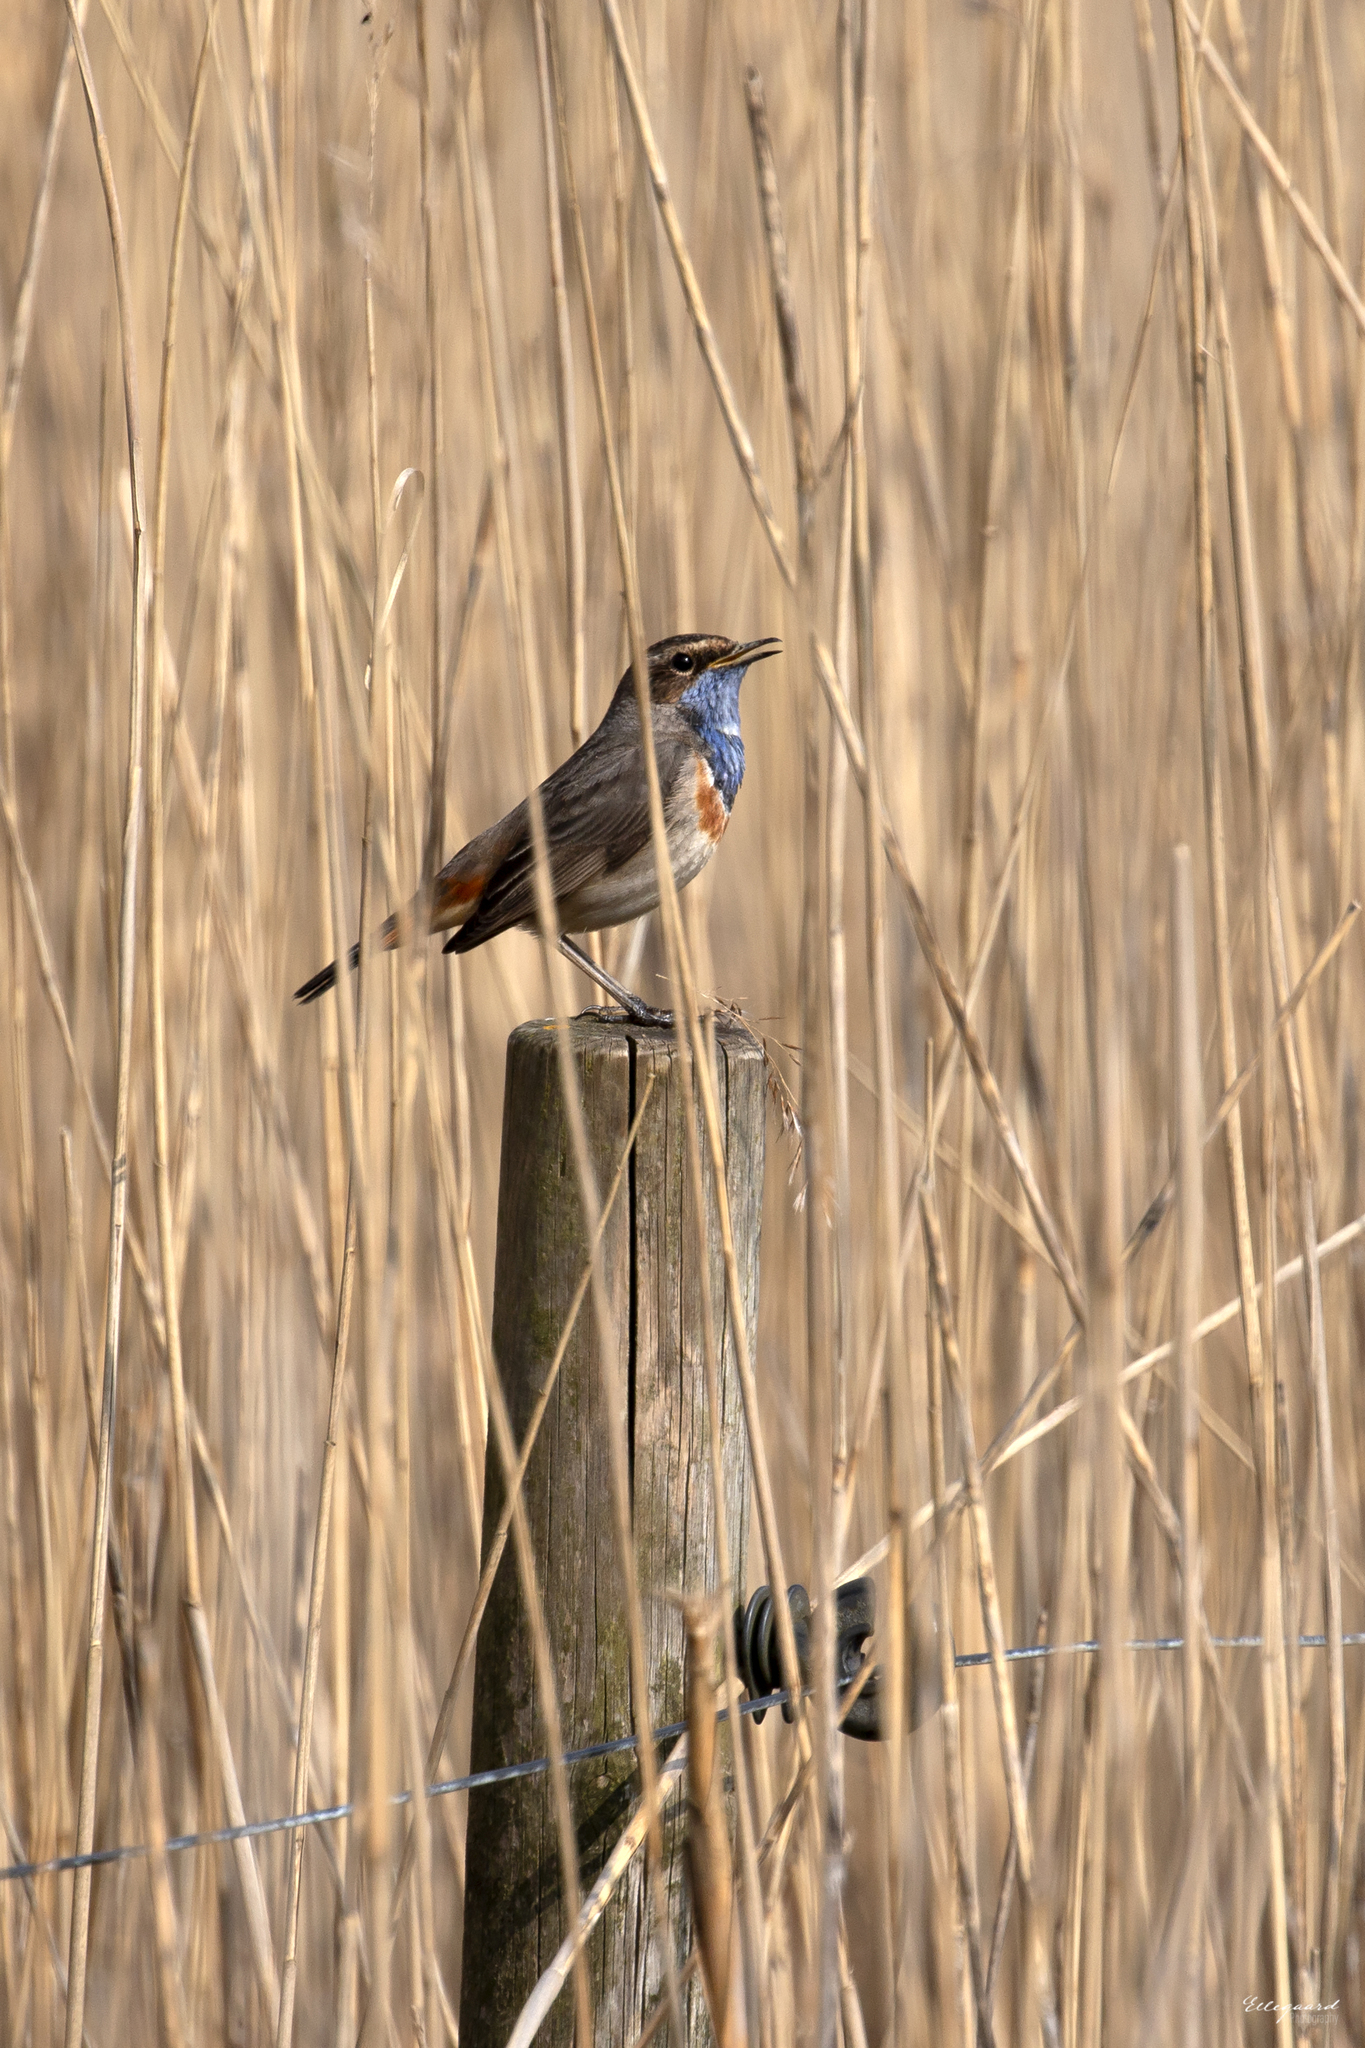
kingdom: Animalia
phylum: Chordata
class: Aves
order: Passeriformes
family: Muscicapidae
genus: Luscinia
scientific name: Luscinia svecica
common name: Bluethroat
